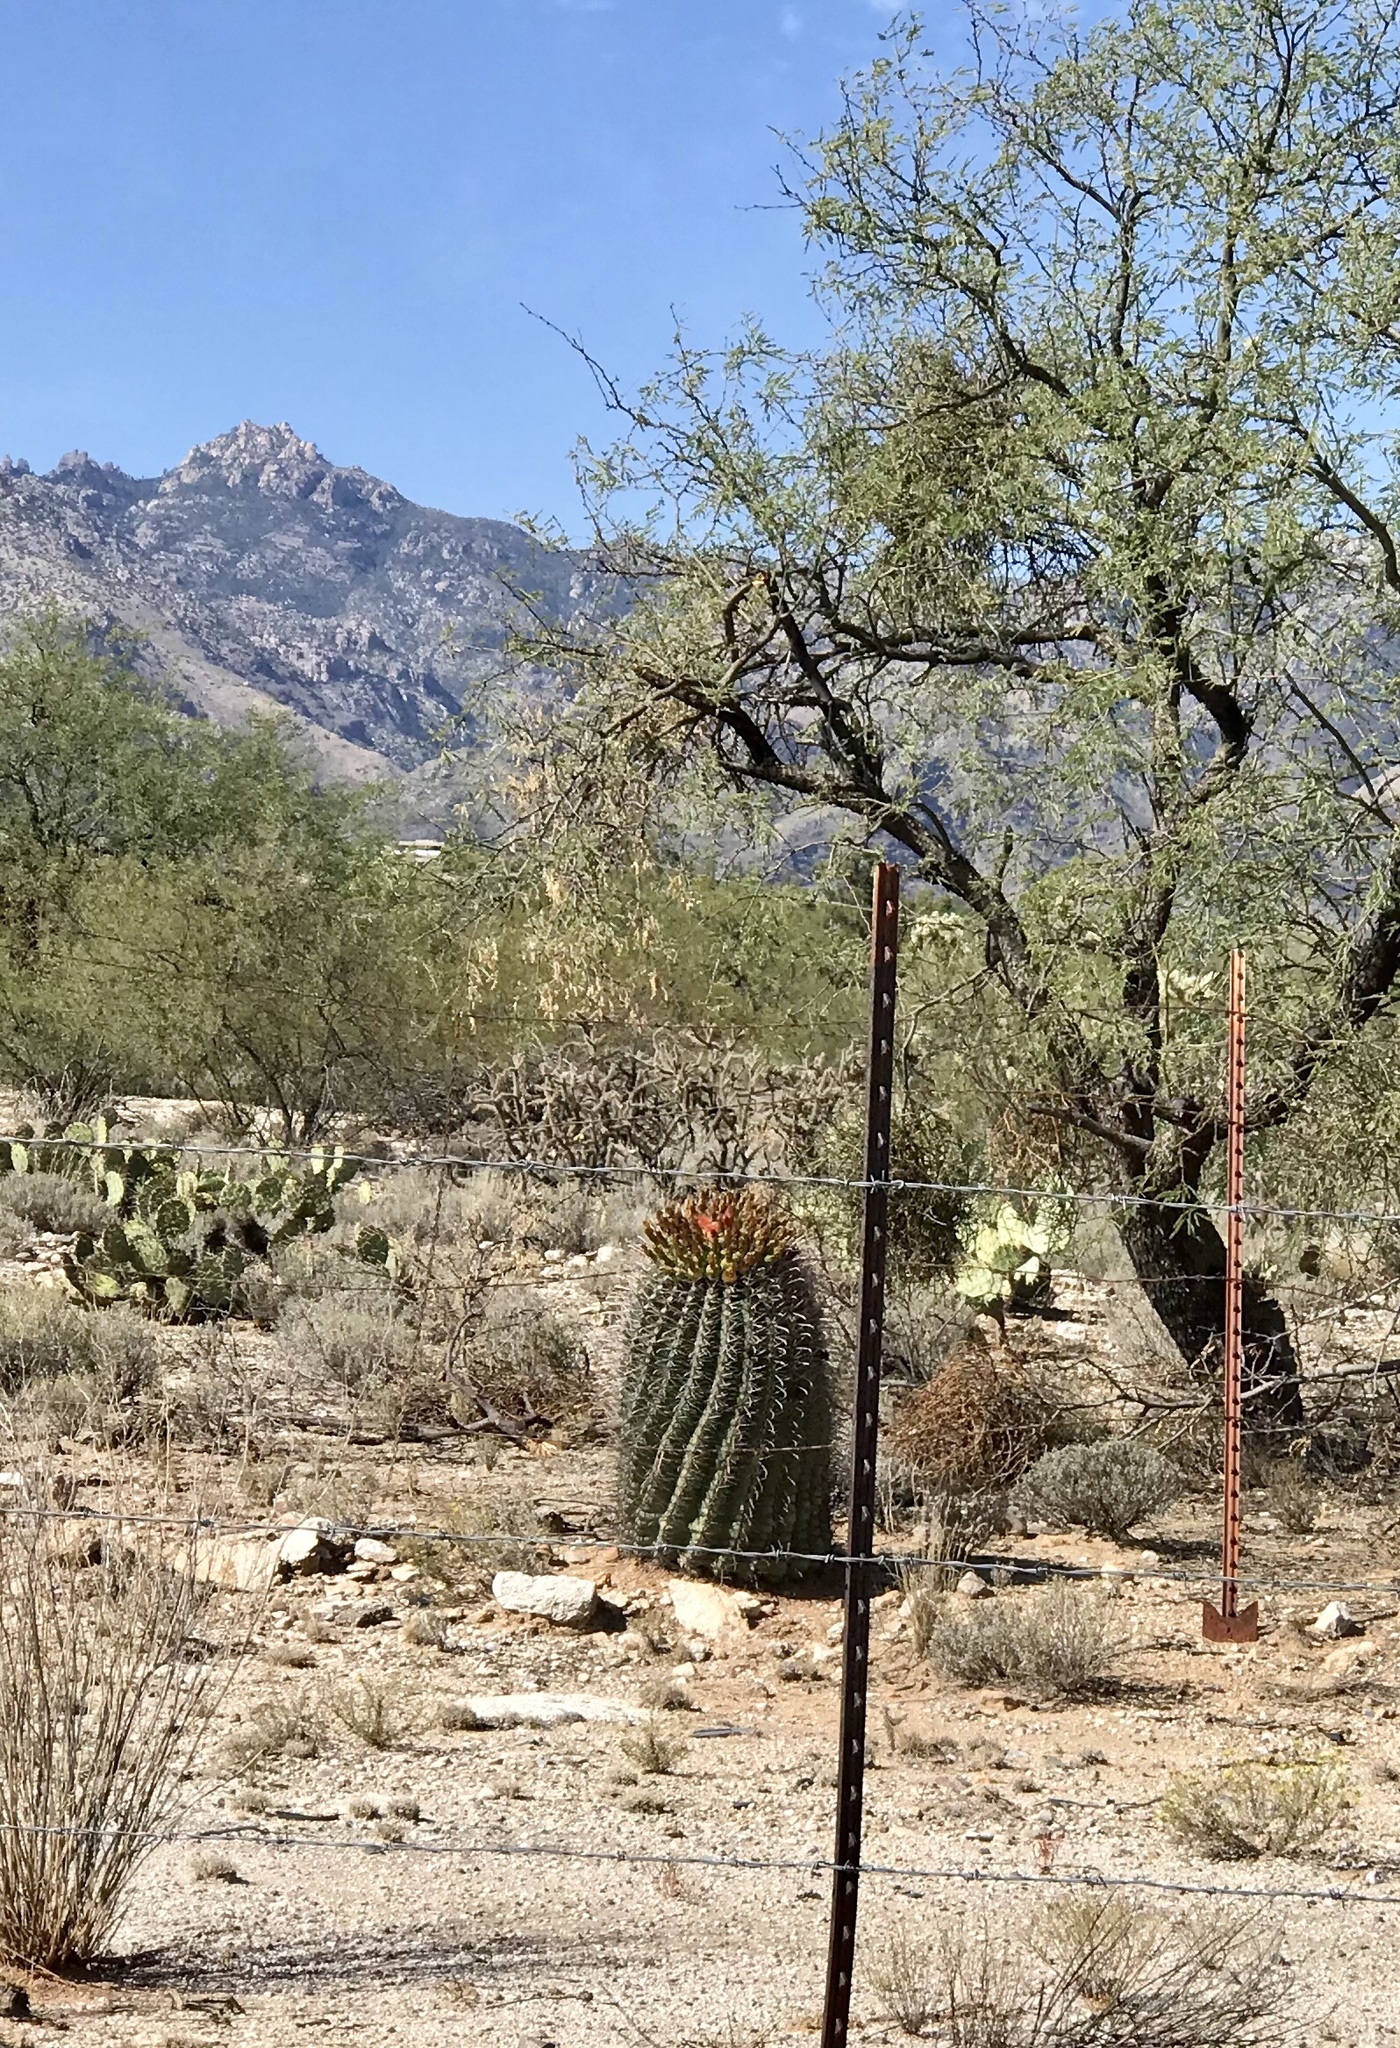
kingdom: Plantae
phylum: Tracheophyta
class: Magnoliopsida
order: Caryophyllales
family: Cactaceae
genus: Ferocactus
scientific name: Ferocactus wislizeni
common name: Candy barrel cactus
